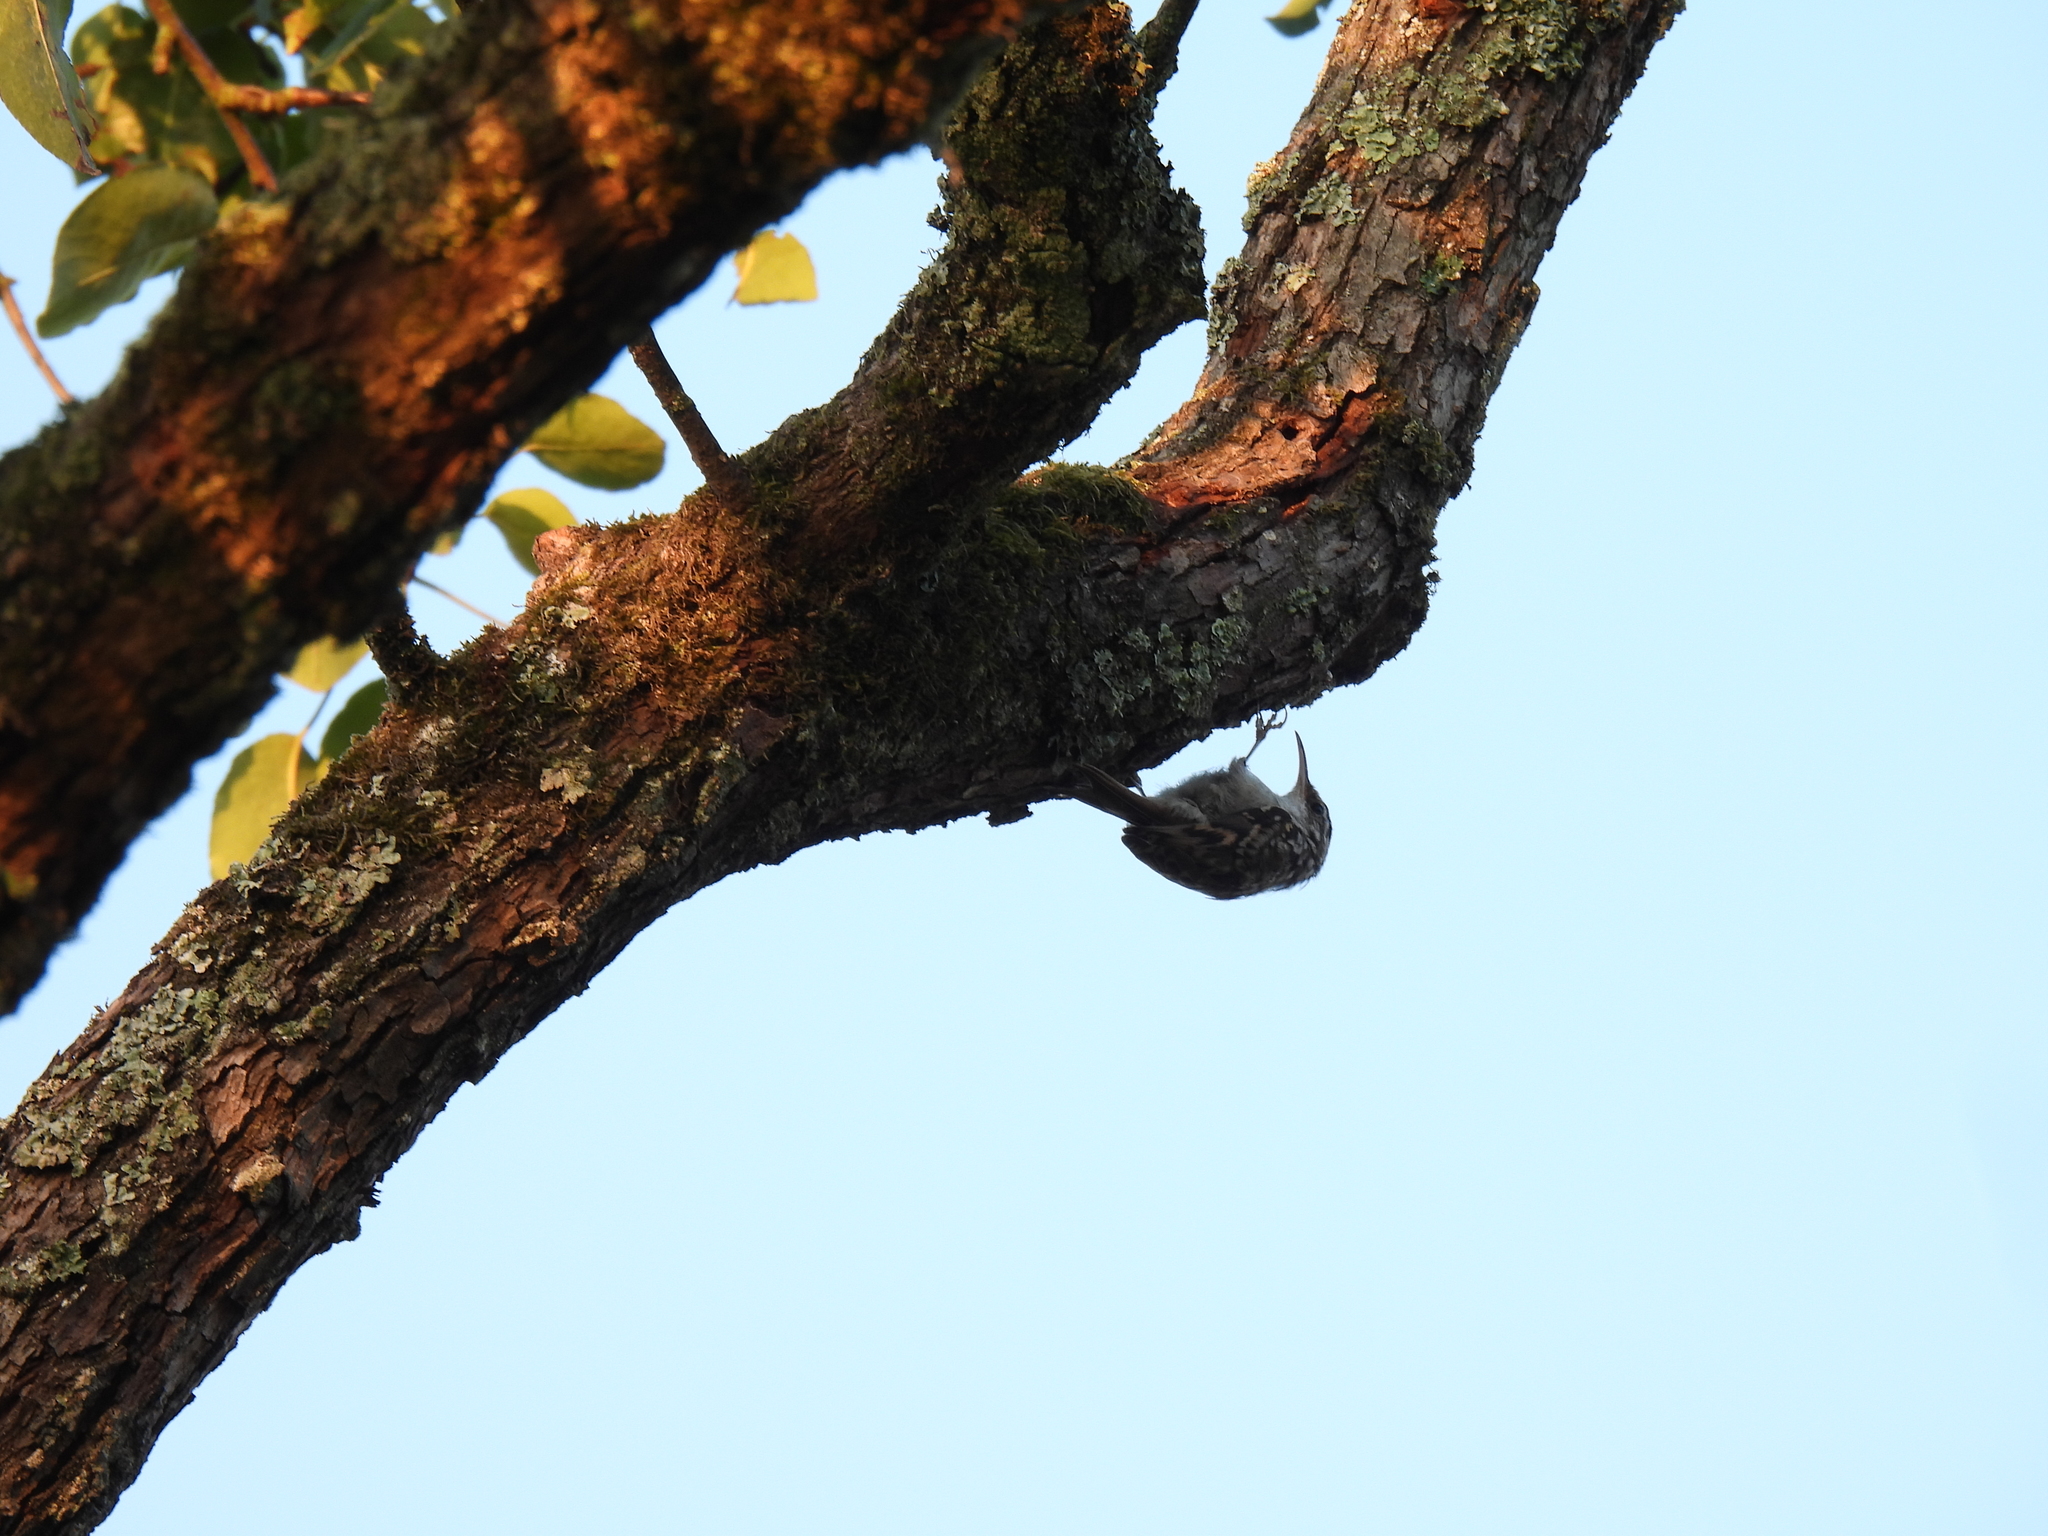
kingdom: Animalia
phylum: Chordata
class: Aves
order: Passeriformes
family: Certhiidae
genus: Certhia
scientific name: Certhia brachydactyla
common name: Short-toed treecreeper
